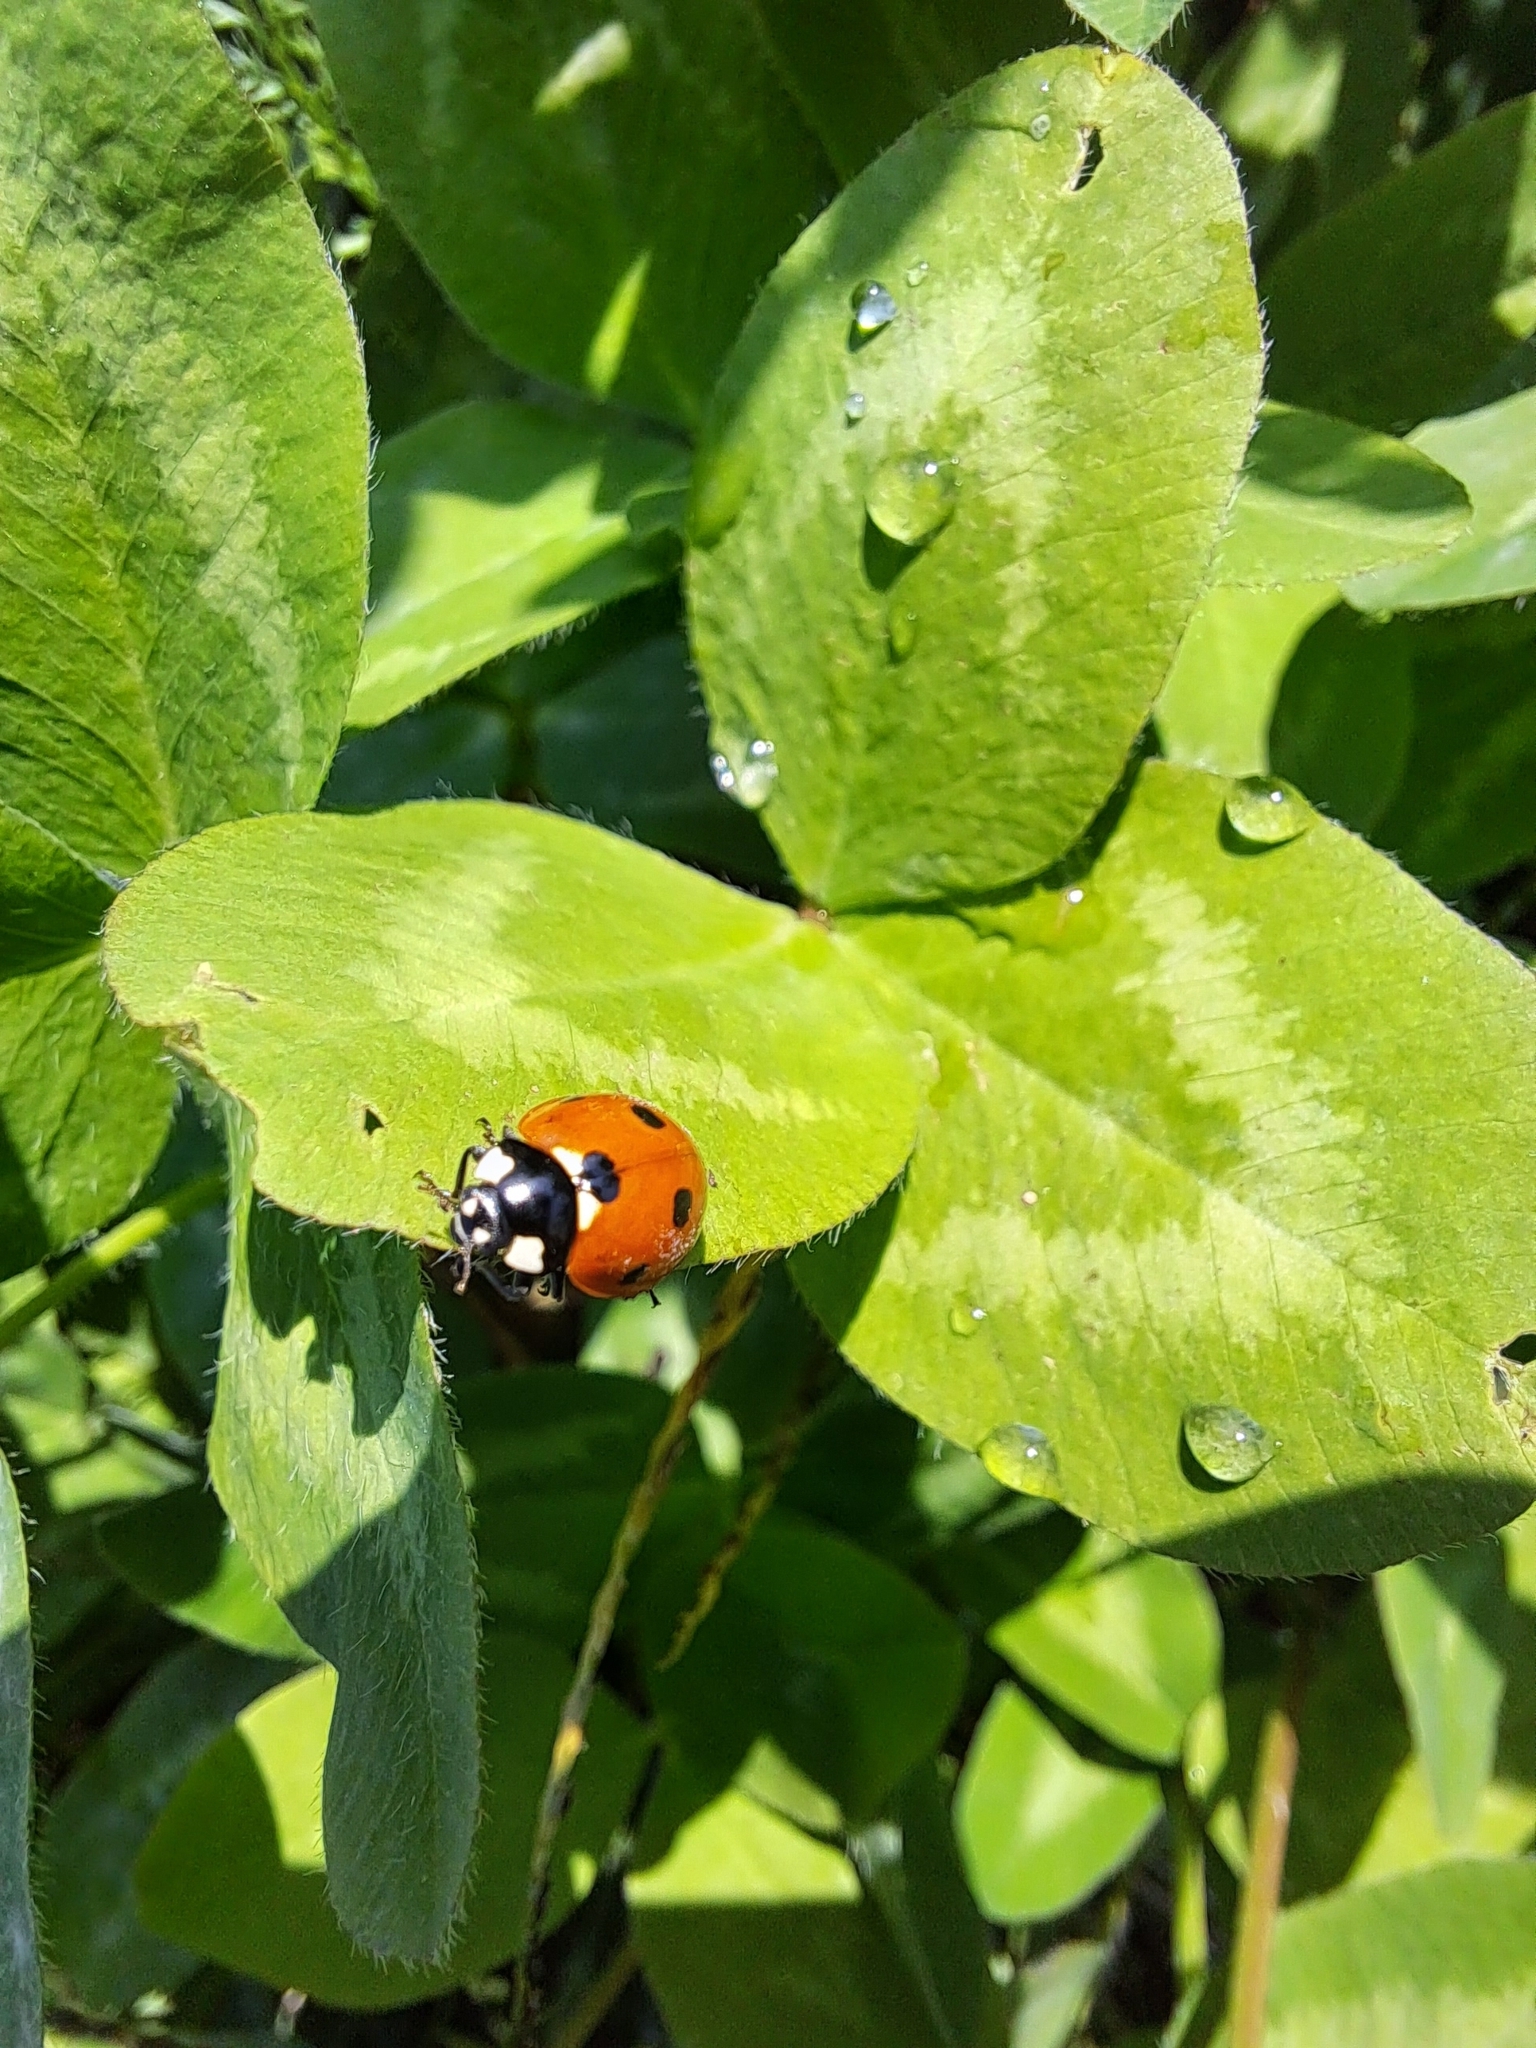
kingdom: Animalia
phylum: Arthropoda
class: Insecta
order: Coleoptera
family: Coccinellidae
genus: Coccinella
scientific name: Coccinella septempunctata
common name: Sevenspotted lady beetle
